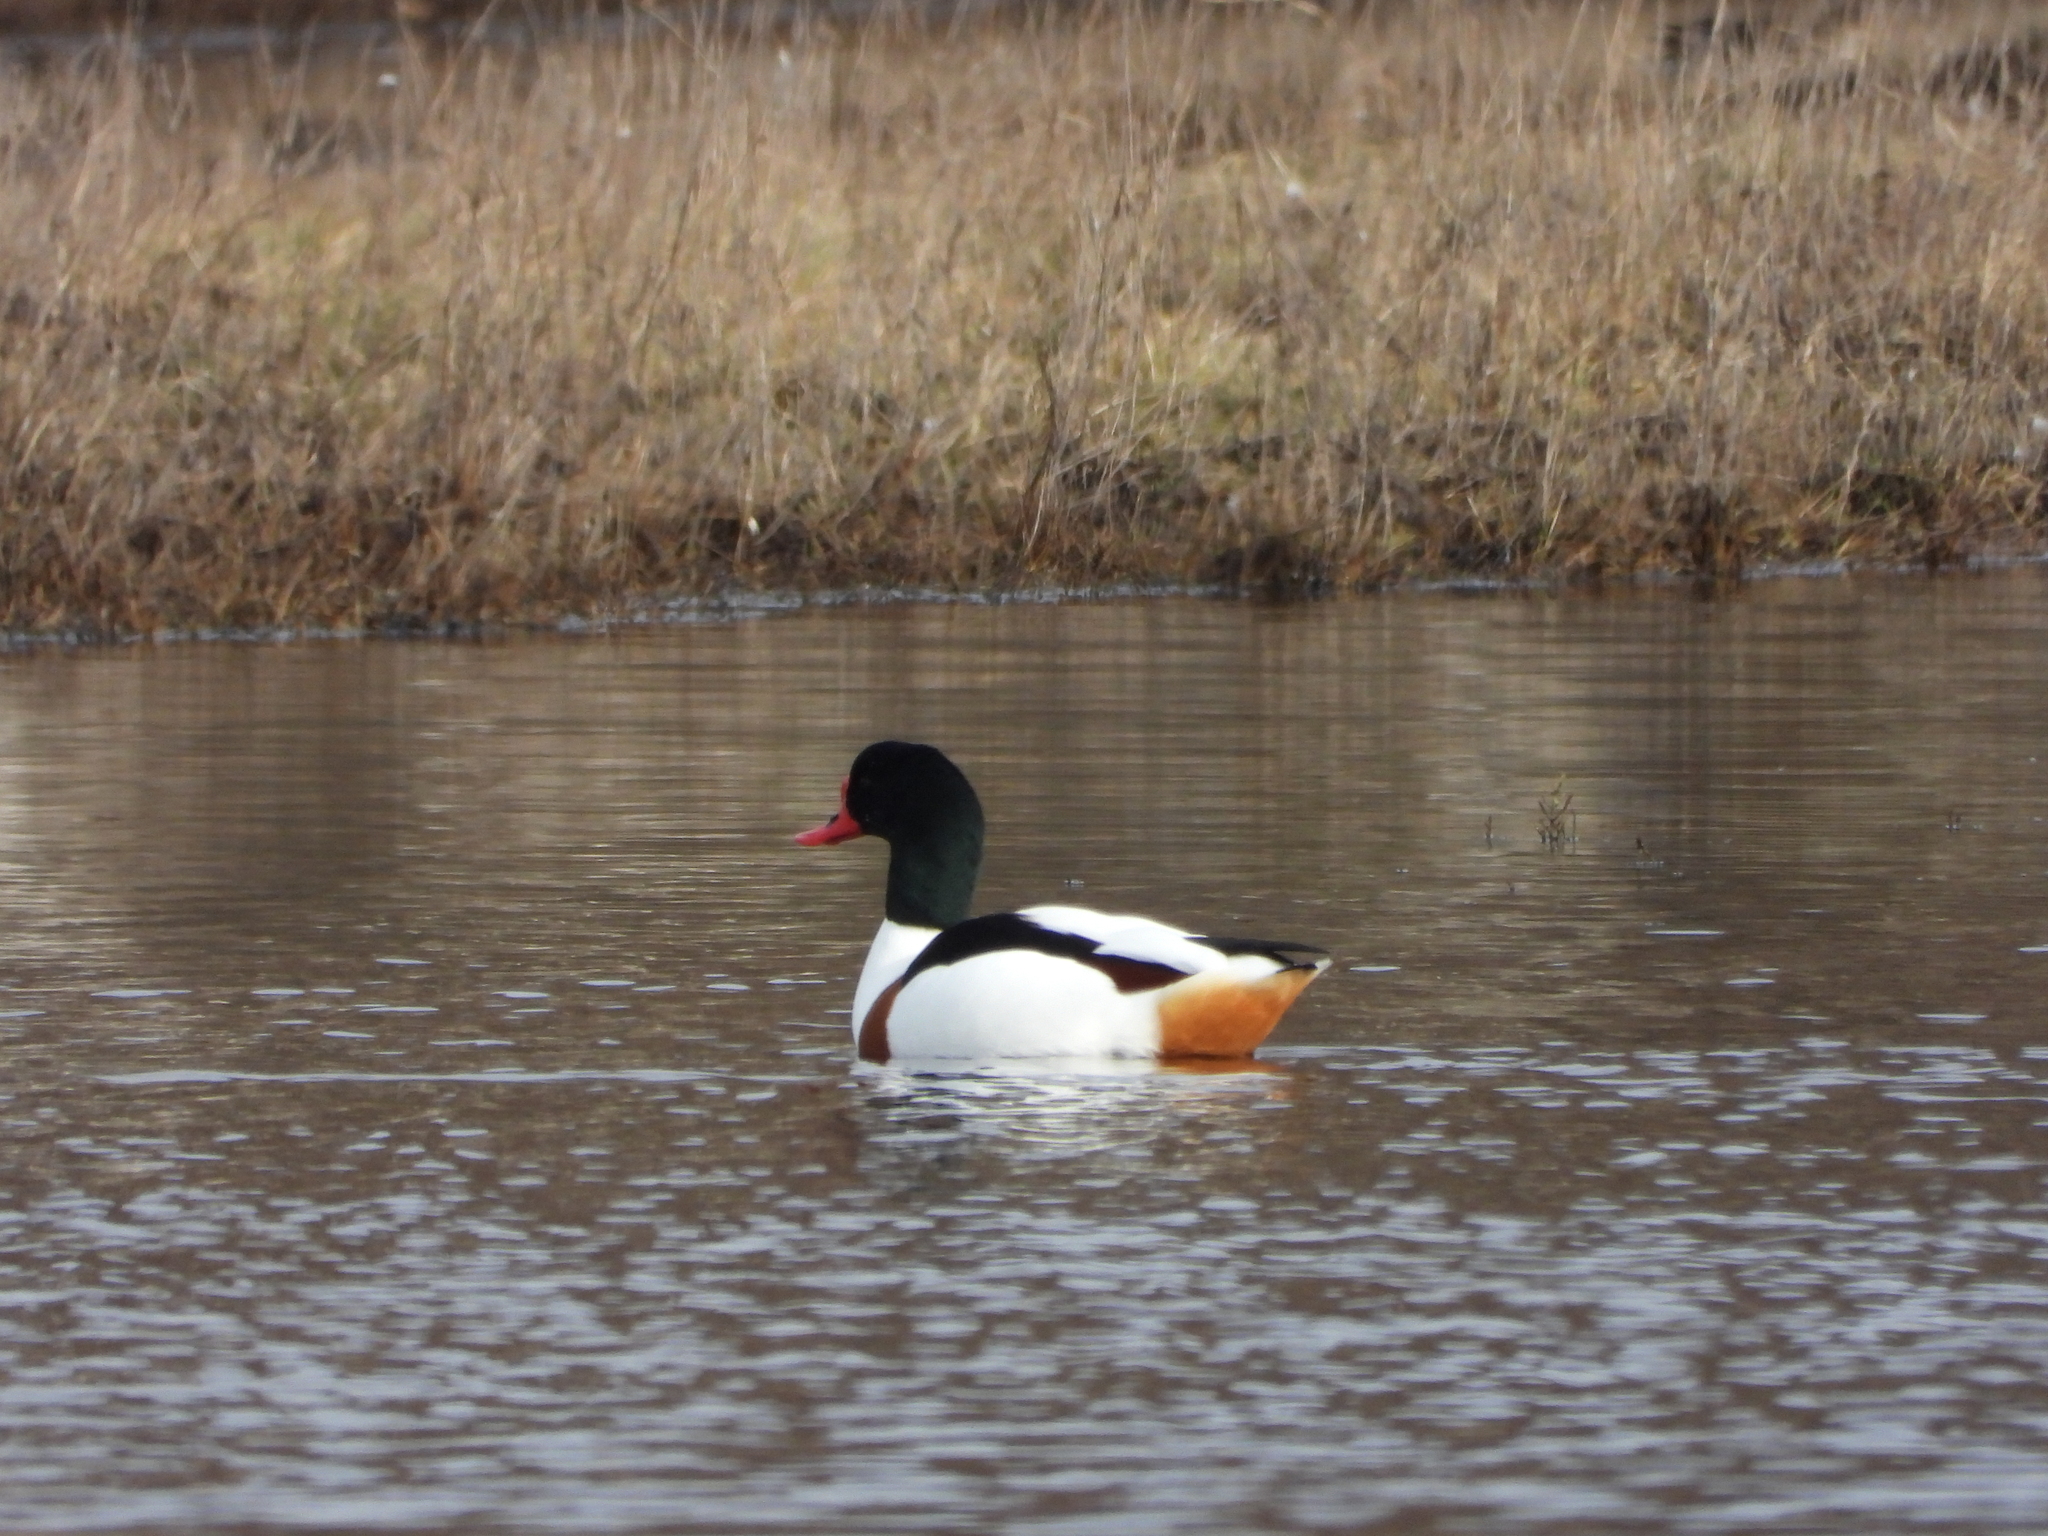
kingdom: Animalia
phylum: Chordata
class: Aves
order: Anseriformes
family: Anatidae
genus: Tadorna
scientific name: Tadorna tadorna
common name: Common shelduck
